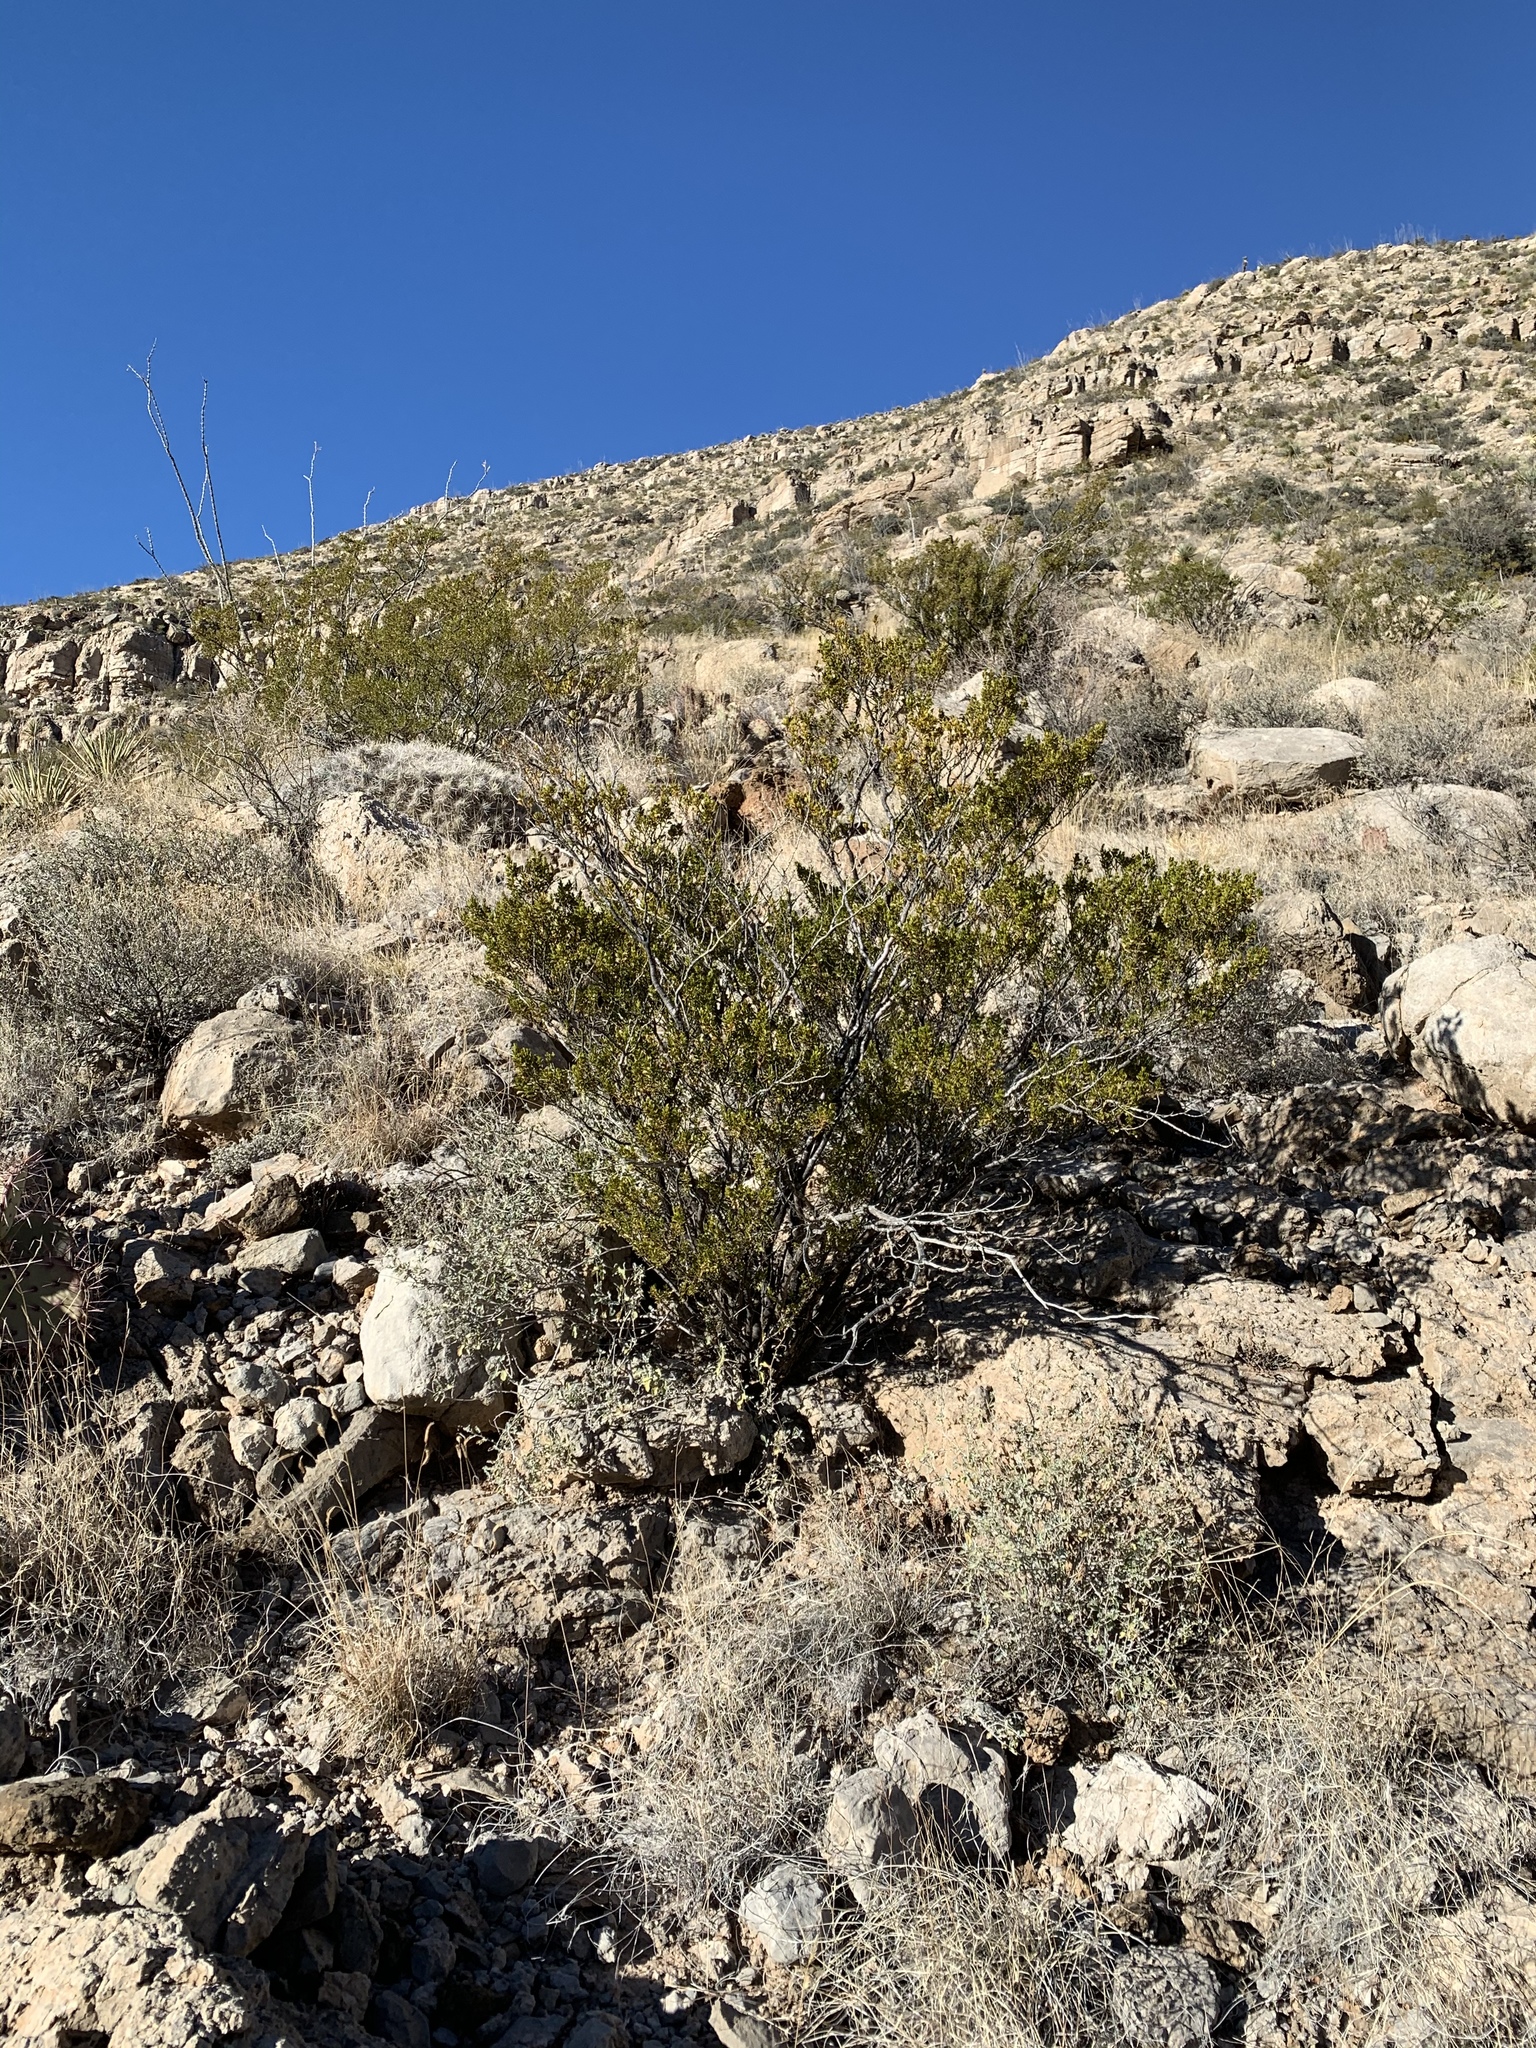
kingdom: Plantae
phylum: Tracheophyta
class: Magnoliopsida
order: Zygophyllales
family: Zygophyllaceae
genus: Larrea
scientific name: Larrea tridentata
